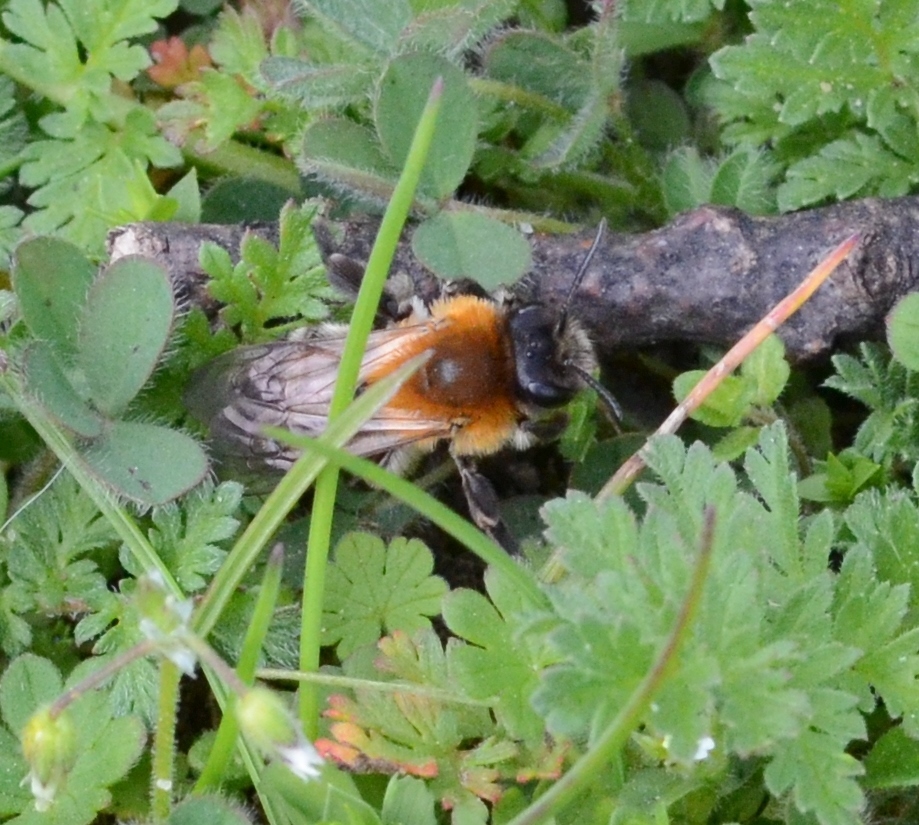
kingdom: Animalia
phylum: Arthropoda
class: Insecta
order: Hymenoptera
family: Andrenidae
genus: Andrena
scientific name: Andrena nitida
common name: Grey-patched mining bee
